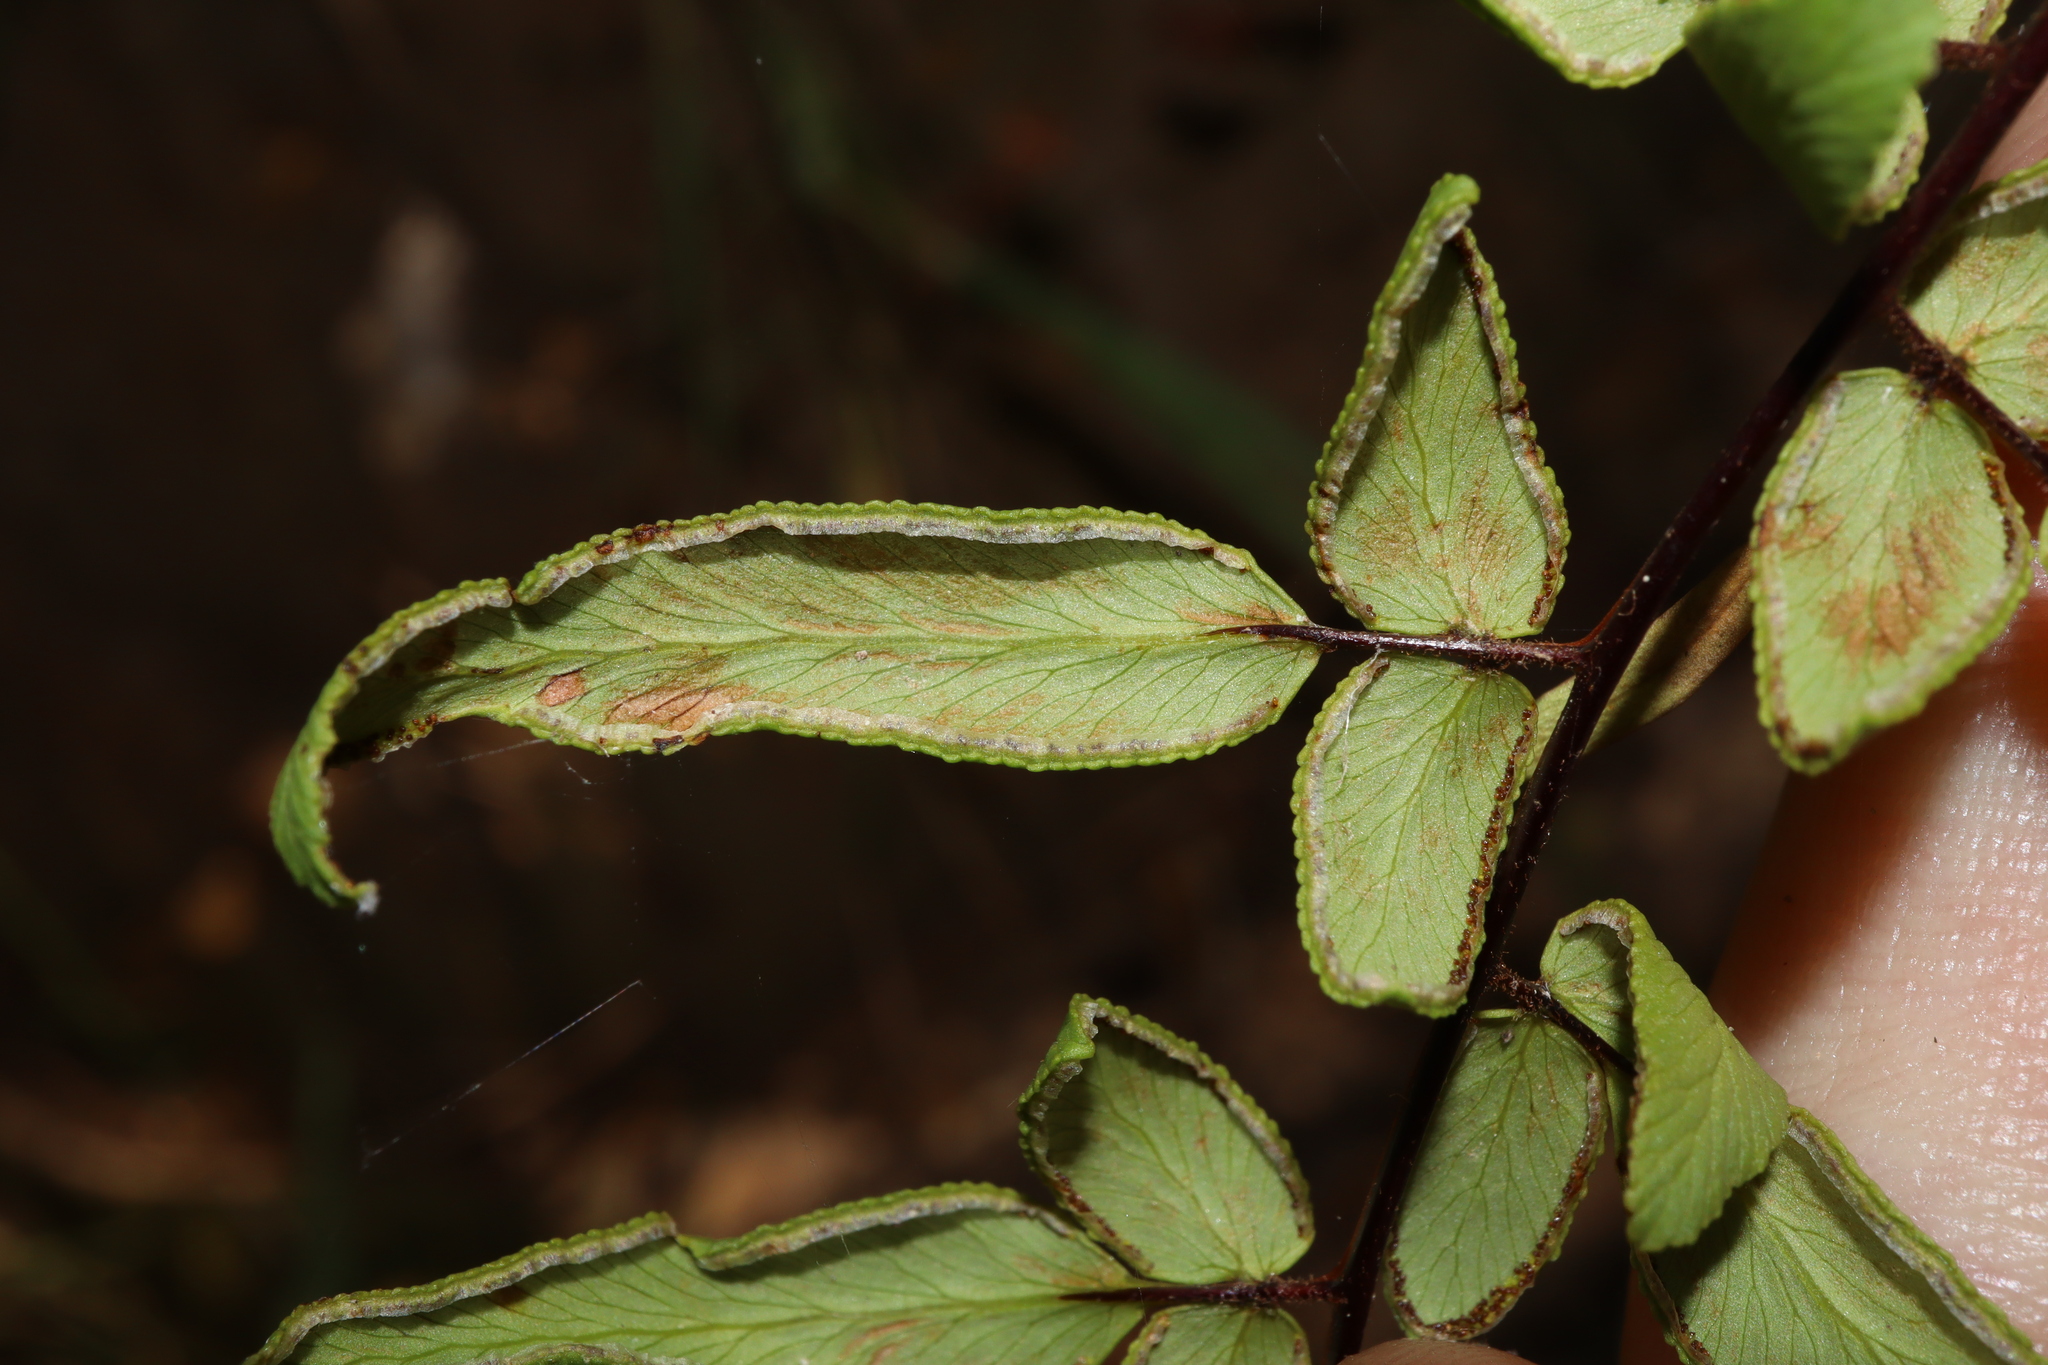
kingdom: Plantae
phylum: Tracheophyta
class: Polypodiopsida
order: Polypodiales
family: Pteridaceae
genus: Cheilanthes
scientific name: Cheilanthes viridis
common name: Green cliffbrake
